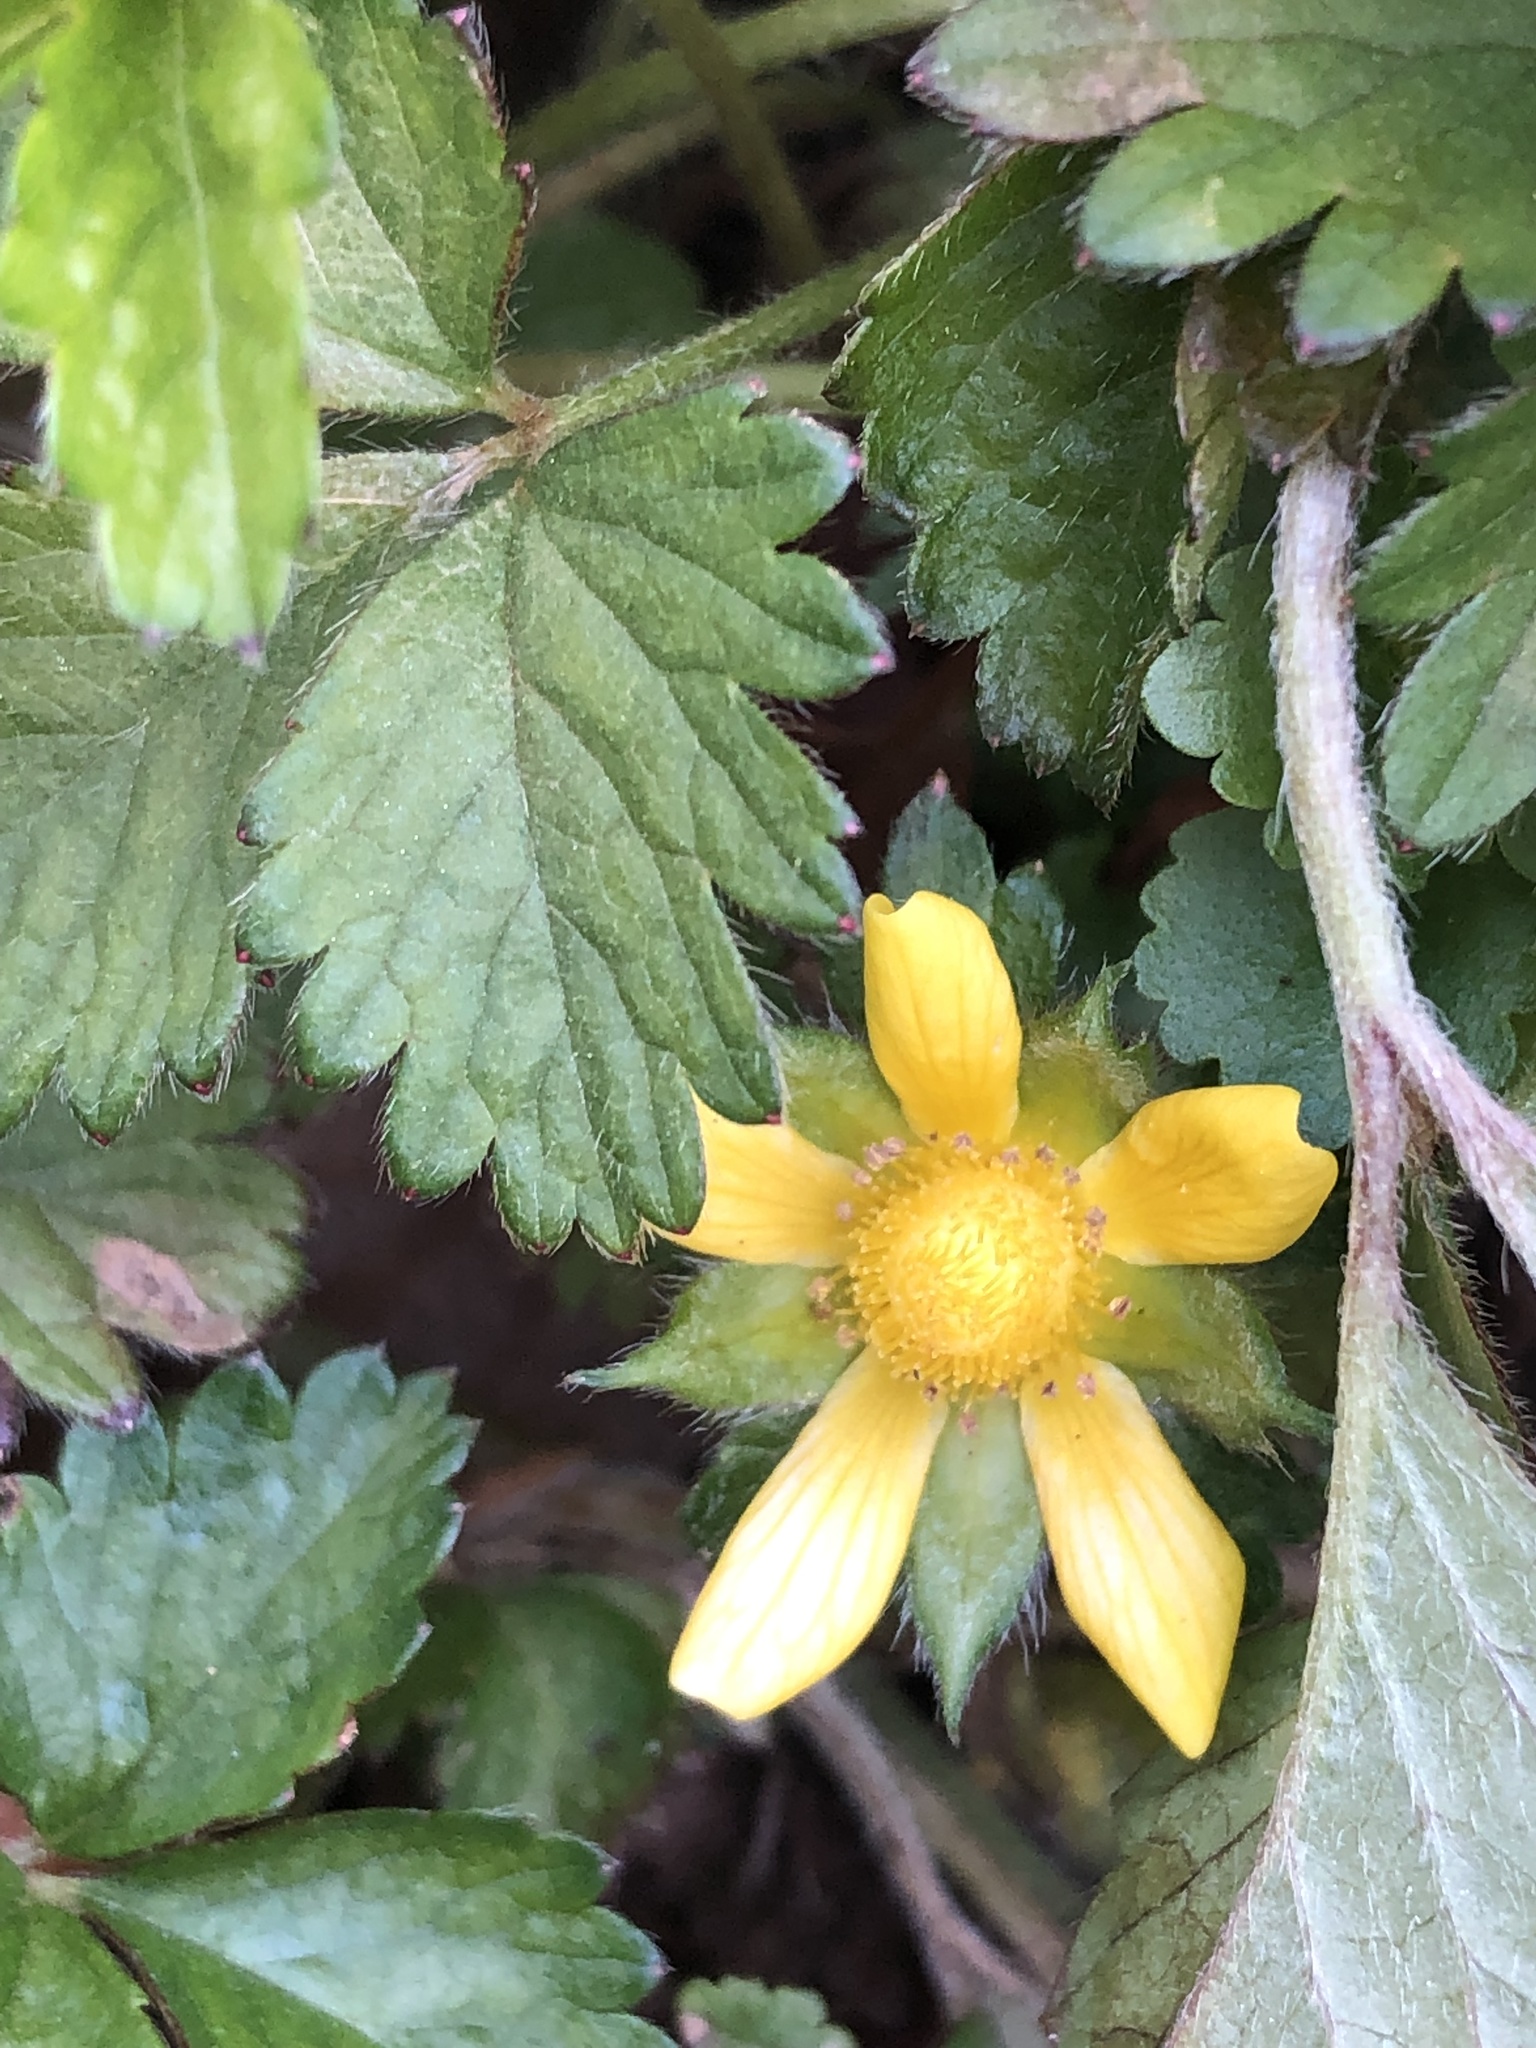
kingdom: Plantae
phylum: Tracheophyta
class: Magnoliopsida
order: Rosales
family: Rosaceae
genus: Potentilla
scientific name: Potentilla indica
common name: Yellow-flowered strawberry
